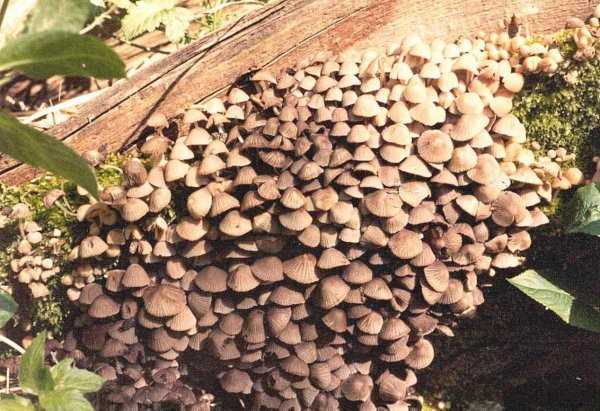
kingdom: Fungi
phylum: Basidiomycota
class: Agaricomycetes
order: Agaricales
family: Psathyrellaceae
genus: Coprinellus
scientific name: Coprinellus disseminatus
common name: Fairies' bonnets
